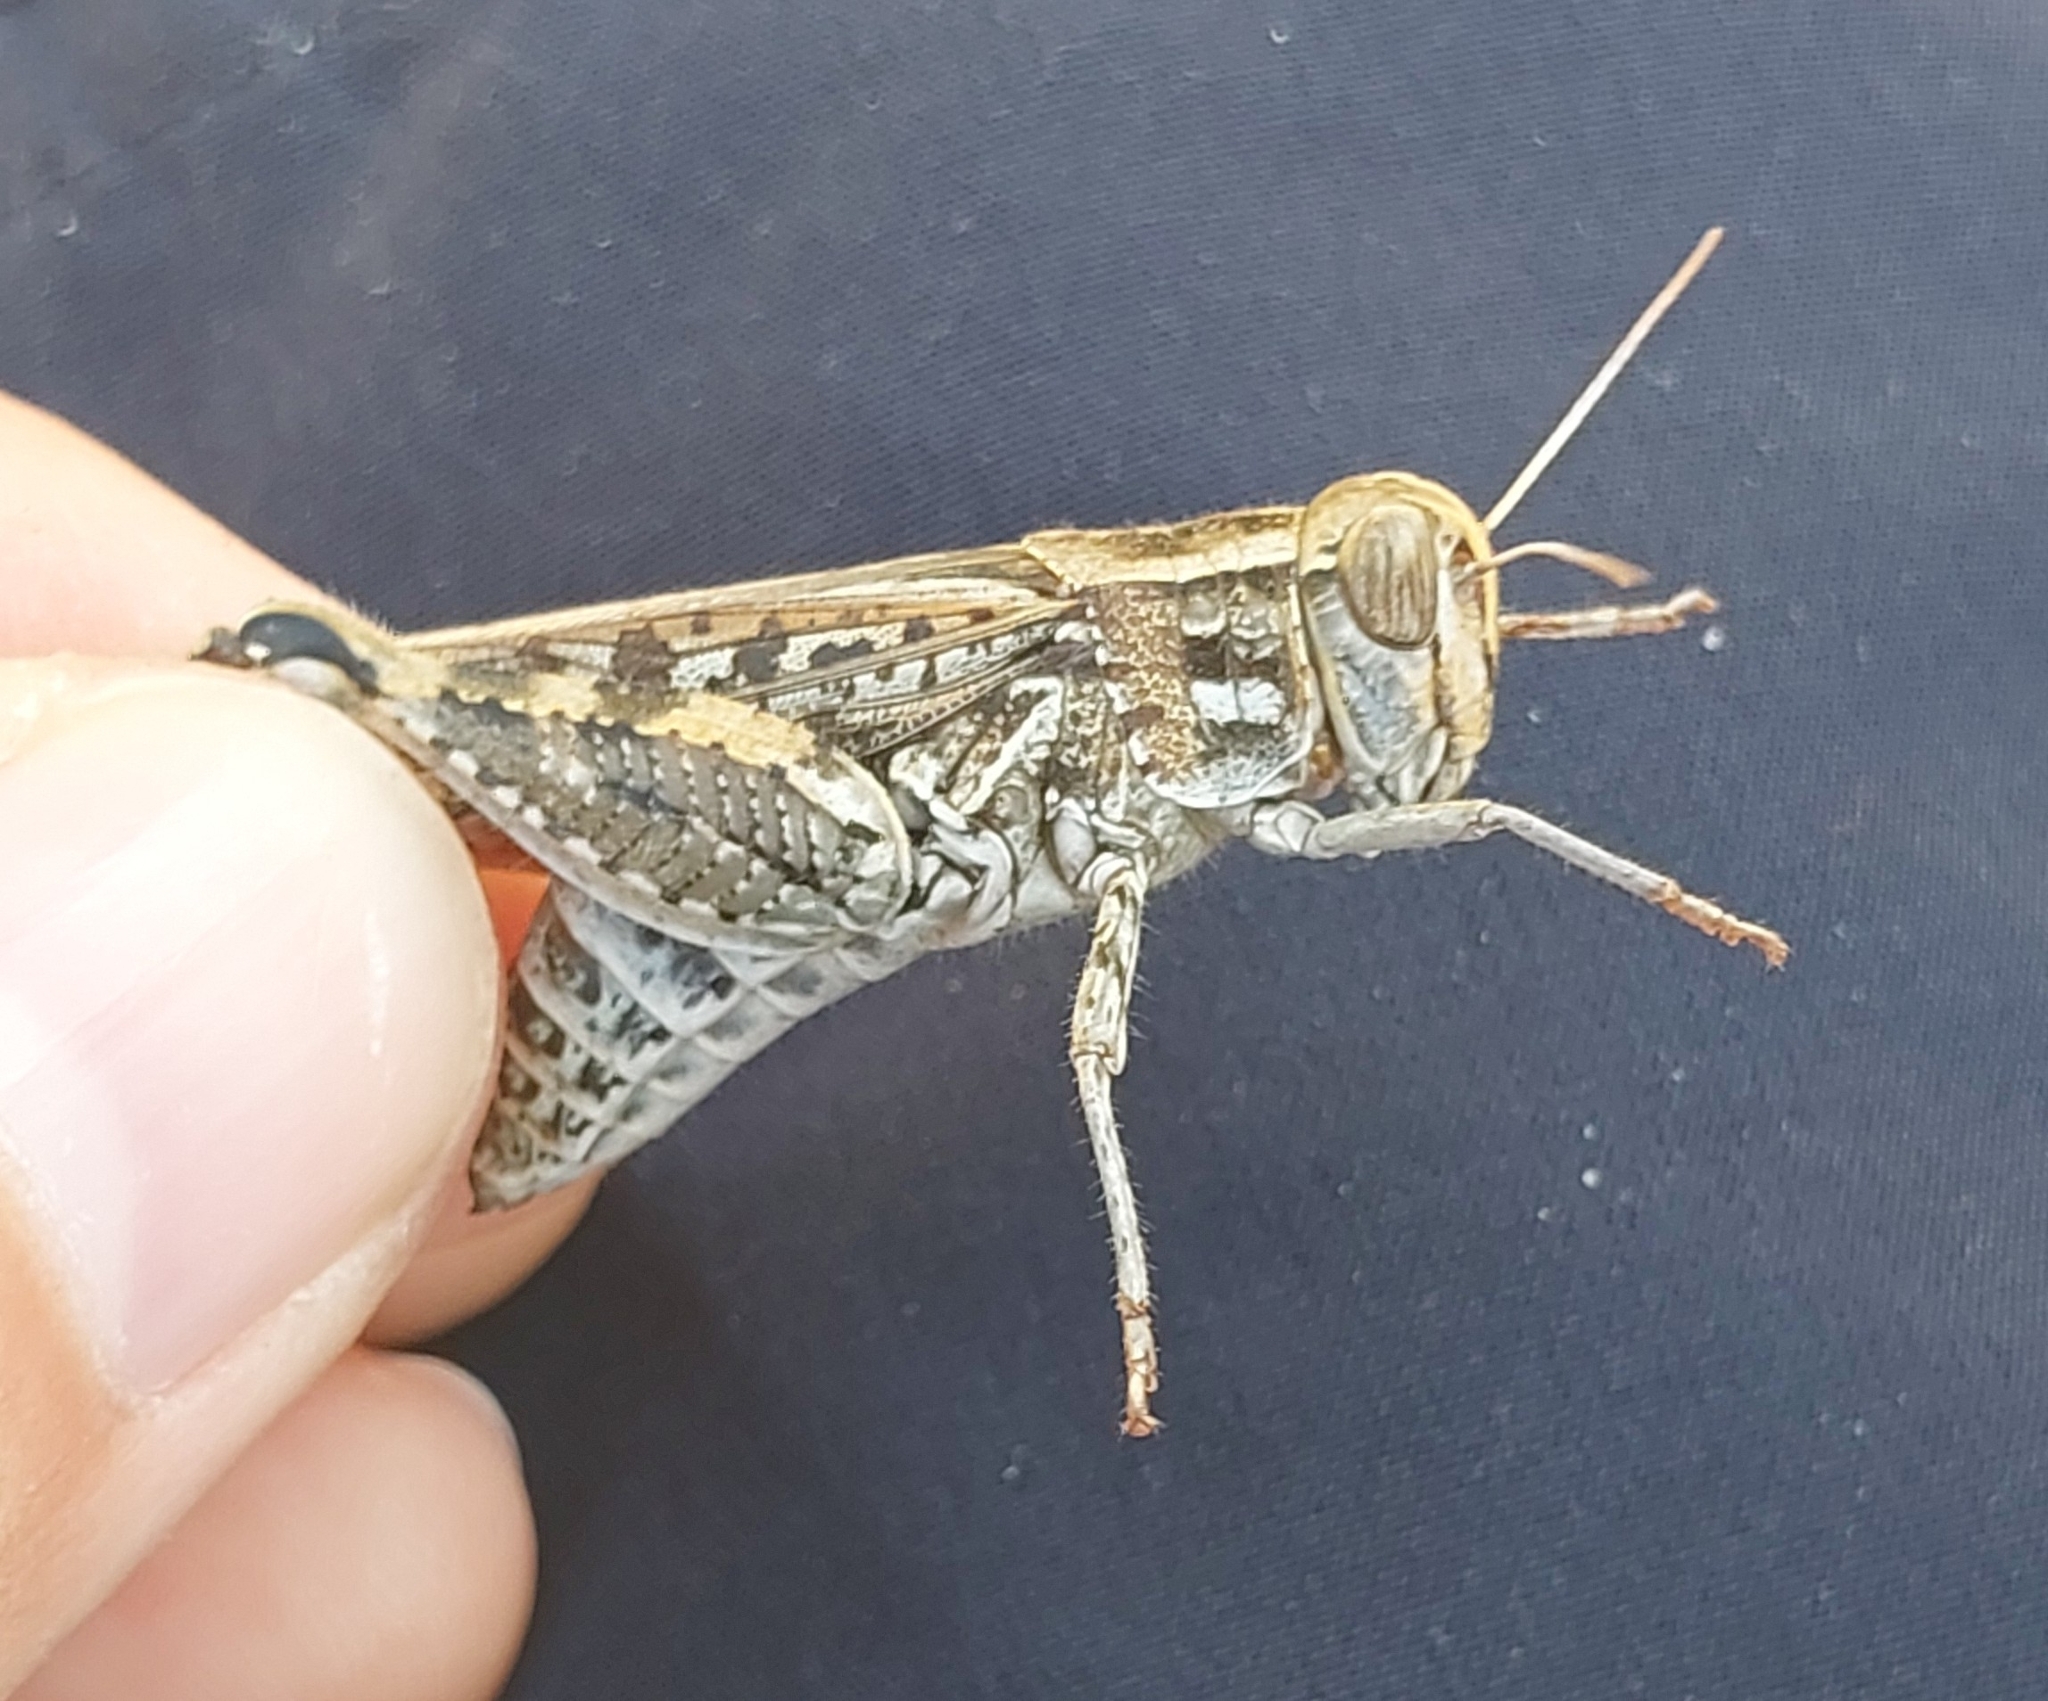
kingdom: Animalia
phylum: Arthropoda
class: Insecta
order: Orthoptera
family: Acrididae
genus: Calliptamus
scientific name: Calliptamus
